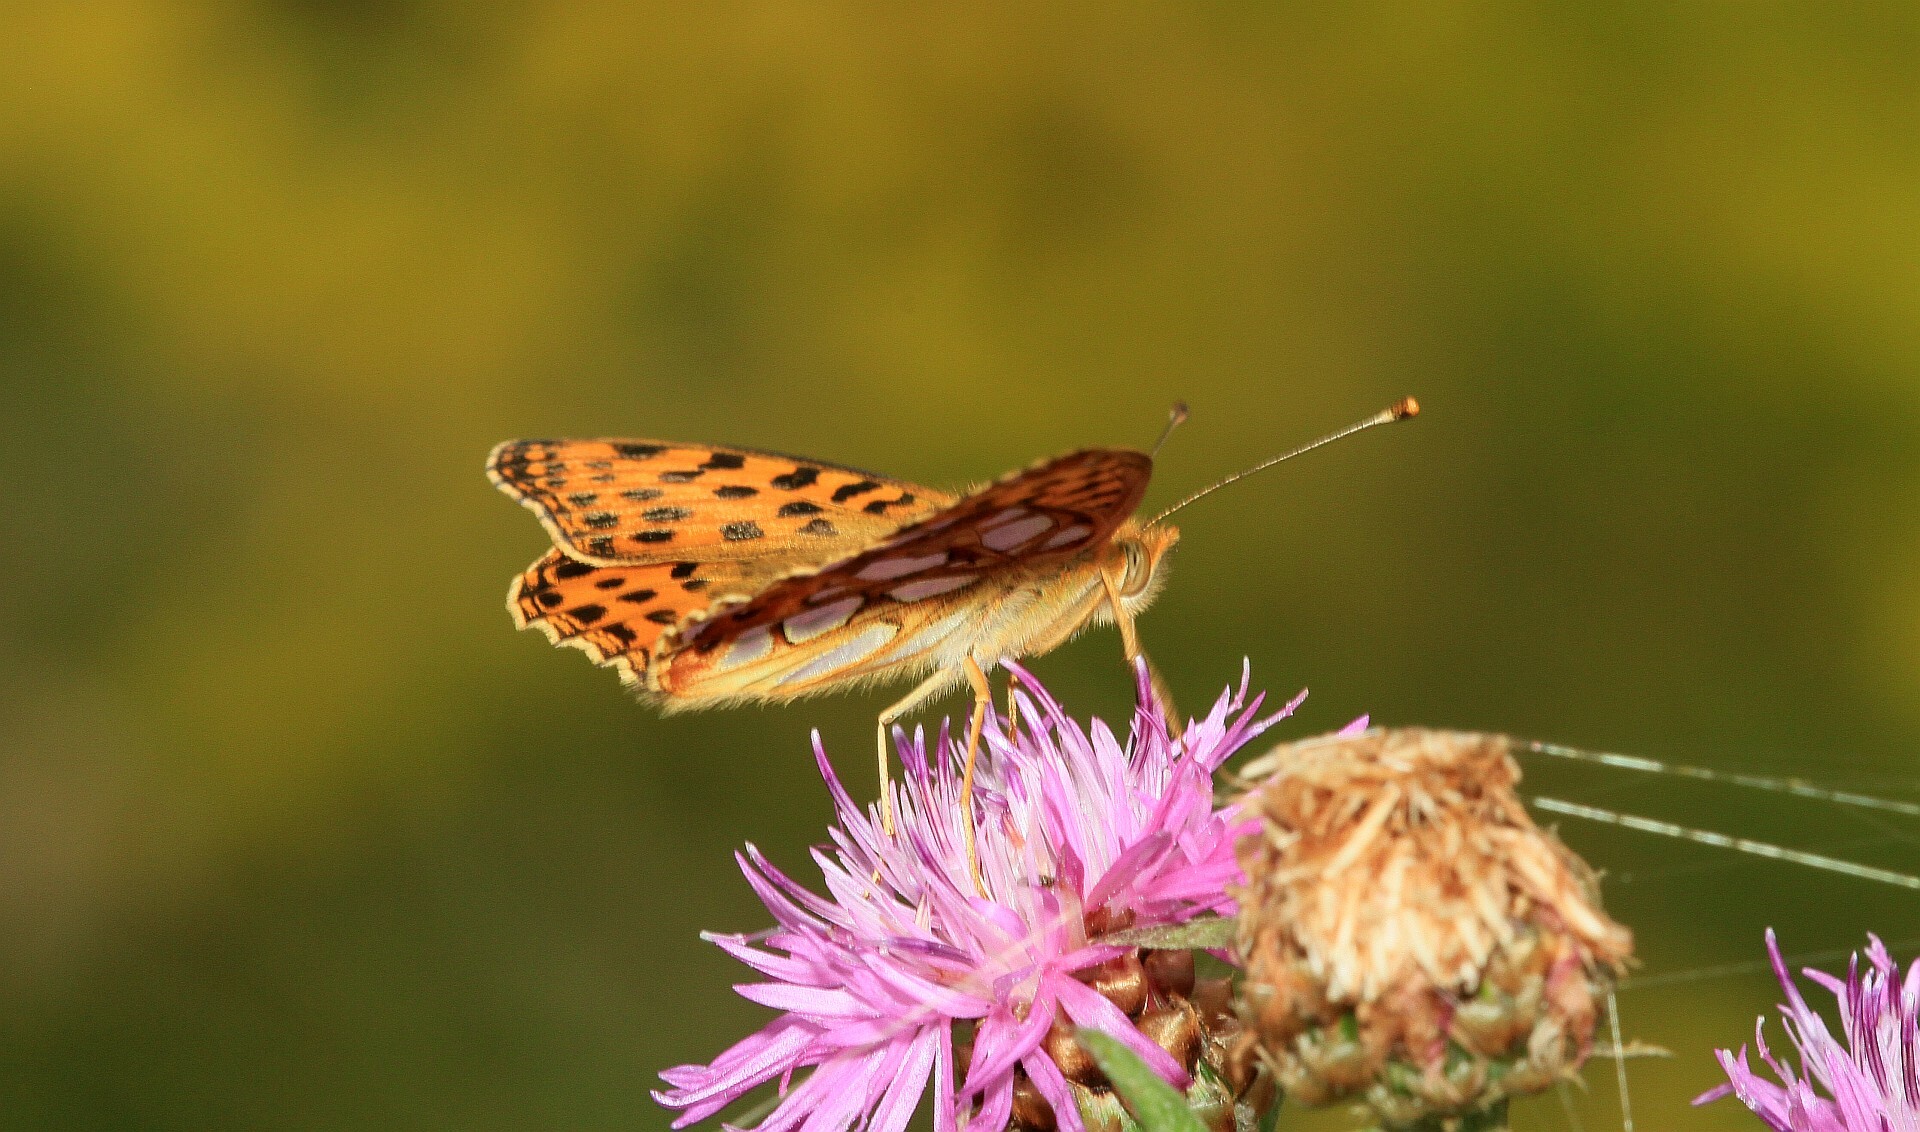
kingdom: Animalia
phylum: Arthropoda
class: Insecta
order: Lepidoptera
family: Nymphalidae
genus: Issoria
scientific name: Issoria lathonia
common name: Queen of spain fritillary
